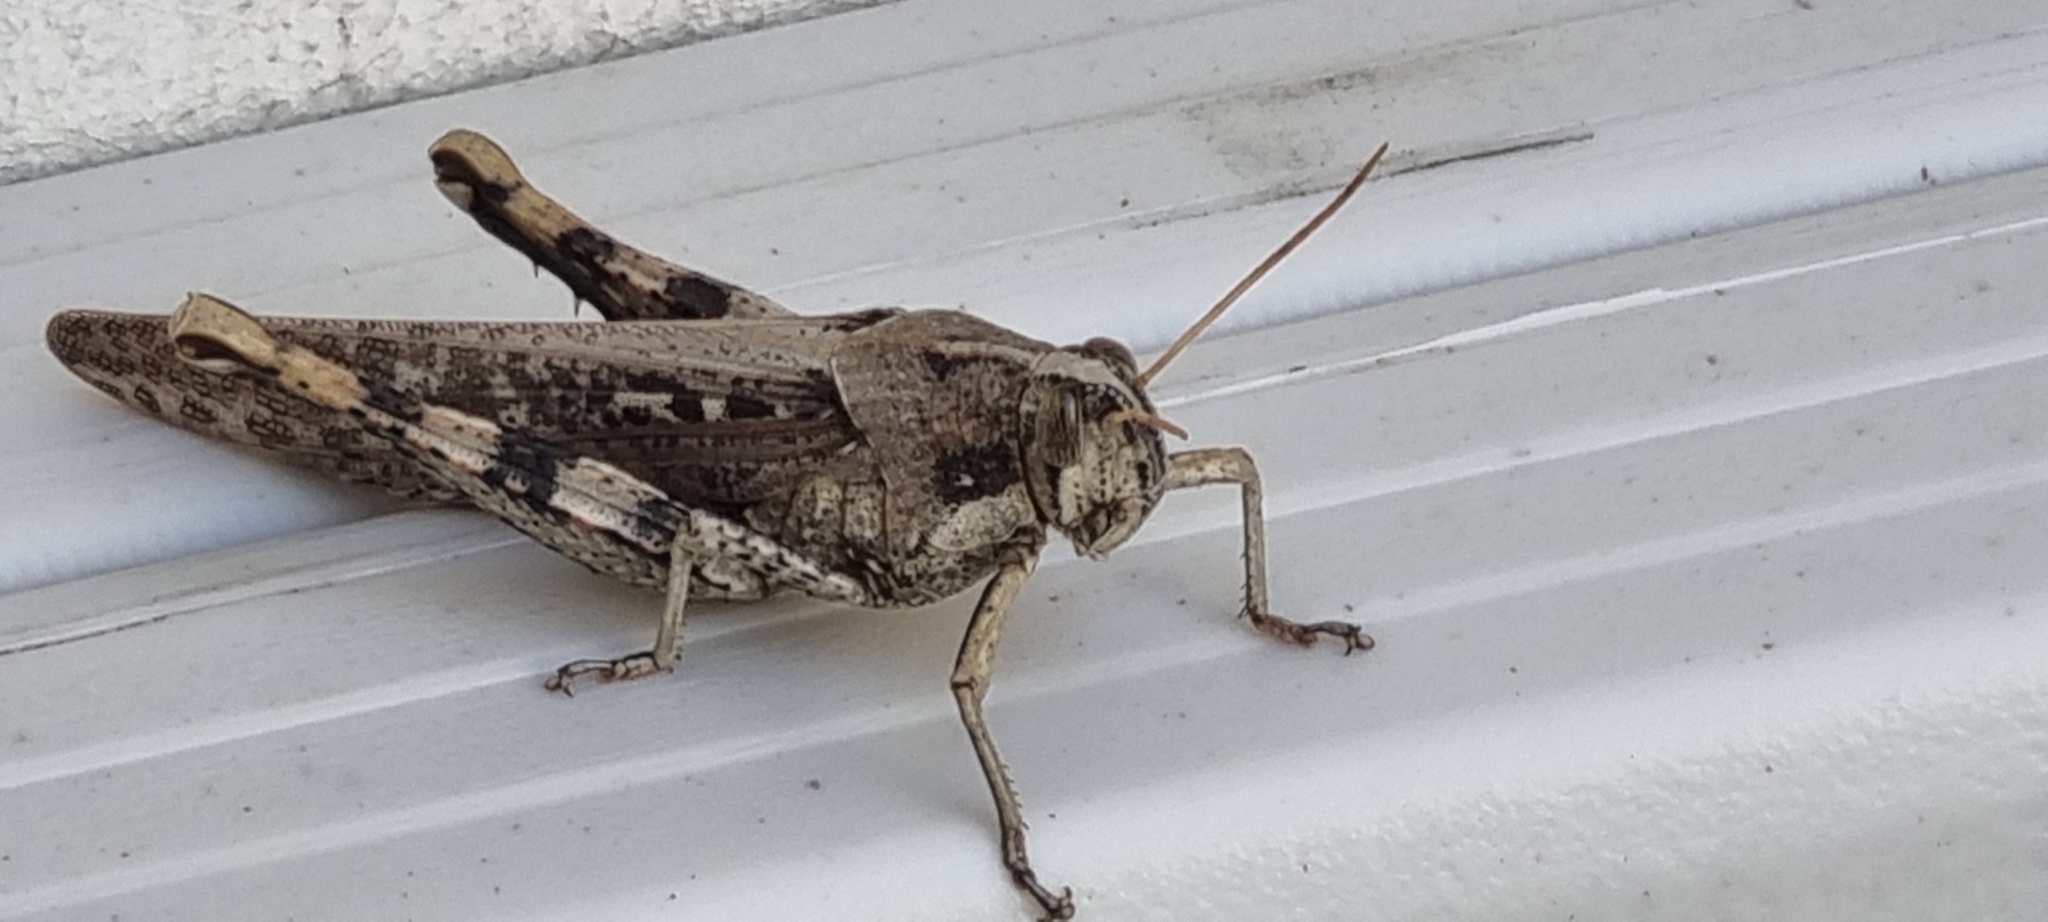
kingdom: Animalia
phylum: Arthropoda
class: Insecta
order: Orthoptera
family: Acrididae
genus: Schistocerca
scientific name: Schistocerca nitens
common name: Vagrant grasshopper
